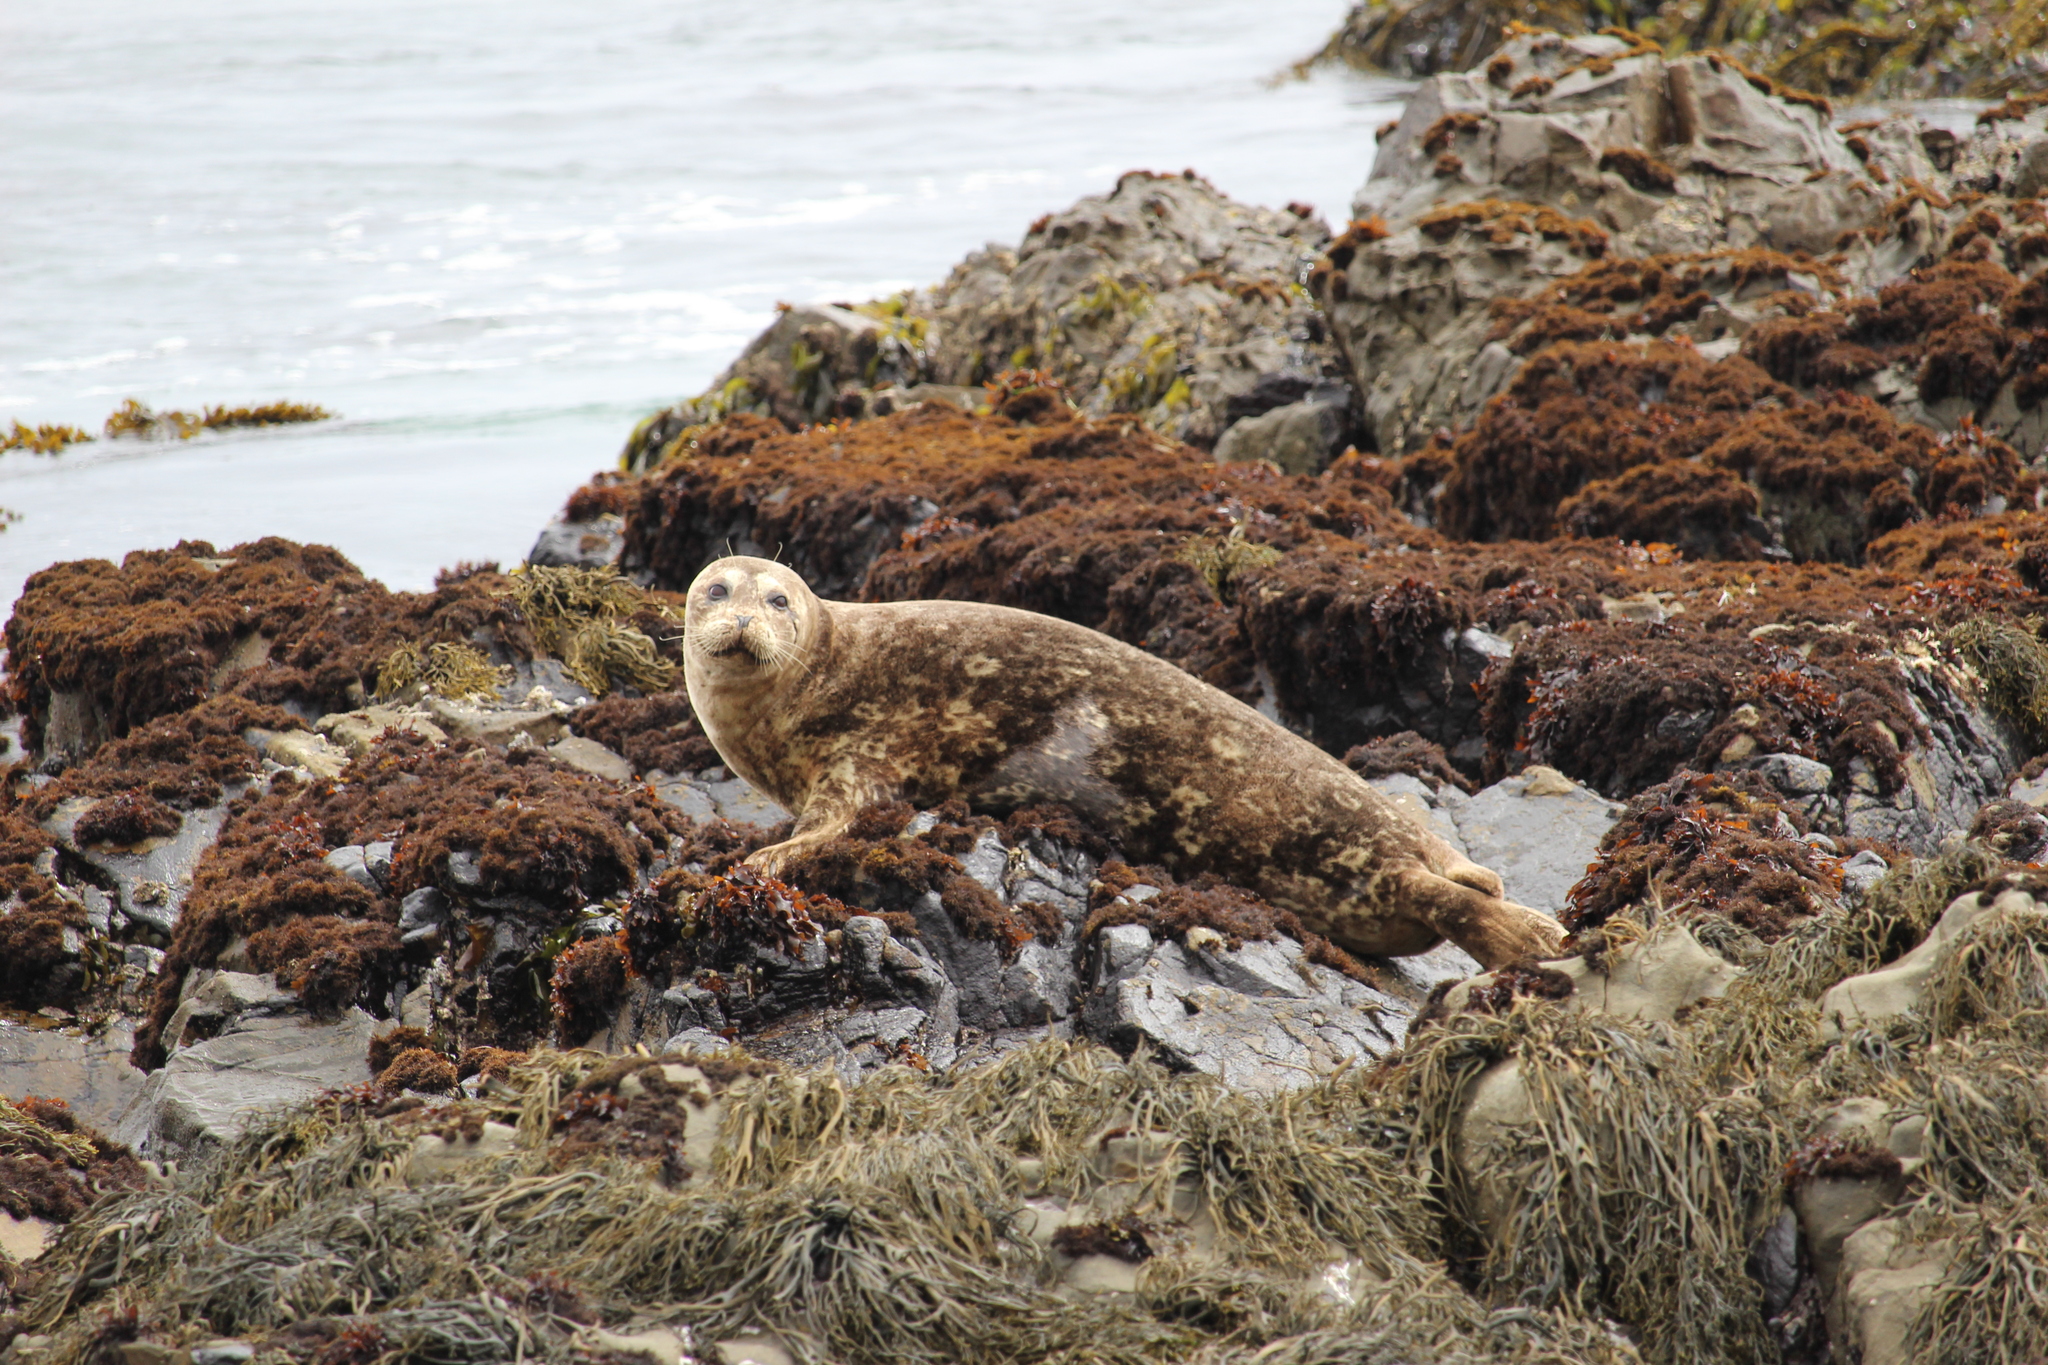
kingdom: Animalia
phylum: Chordata
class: Mammalia
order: Carnivora
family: Phocidae
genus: Phoca
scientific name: Phoca vitulina
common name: Harbor seal
